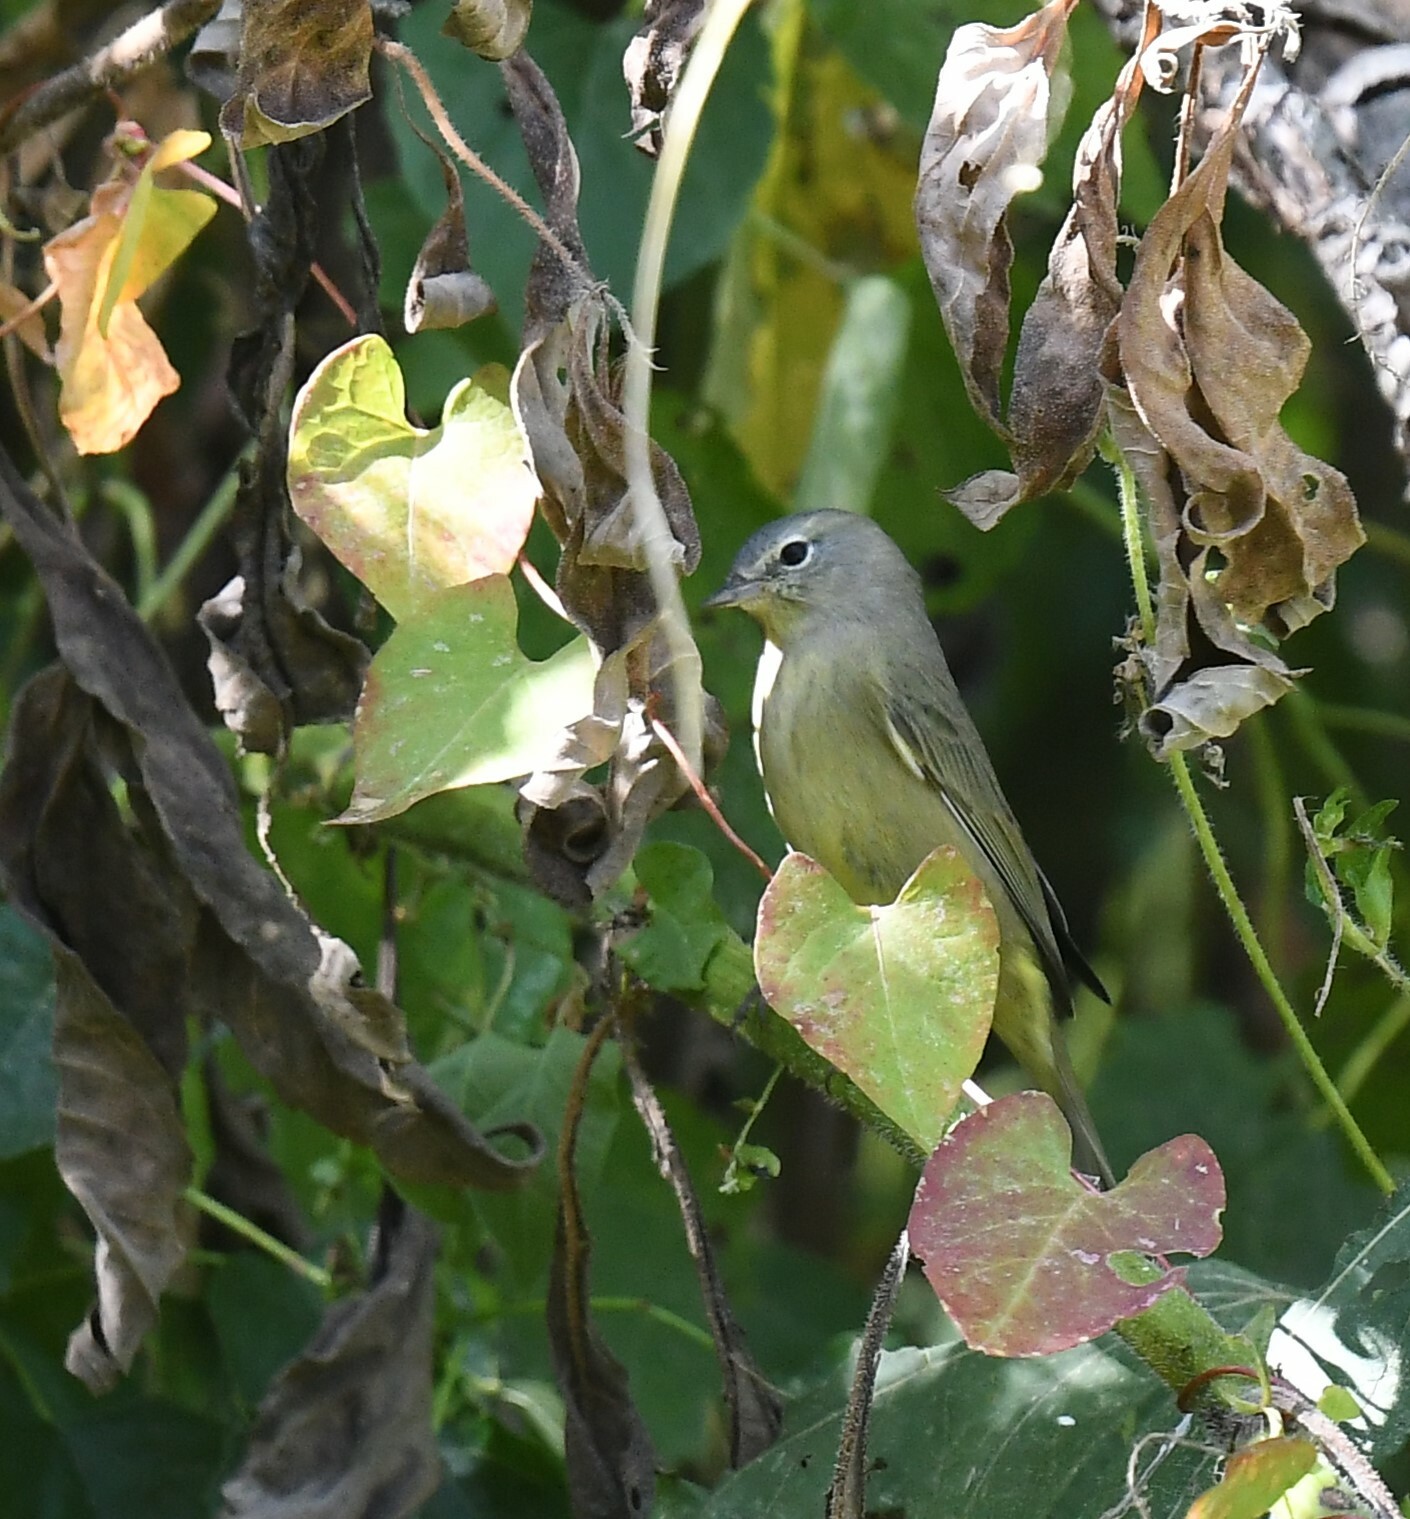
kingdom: Animalia
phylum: Chordata
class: Aves
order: Passeriformes
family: Parulidae
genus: Leiothlypis
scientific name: Leiothlypis celata
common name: Orange-crowned warbler
